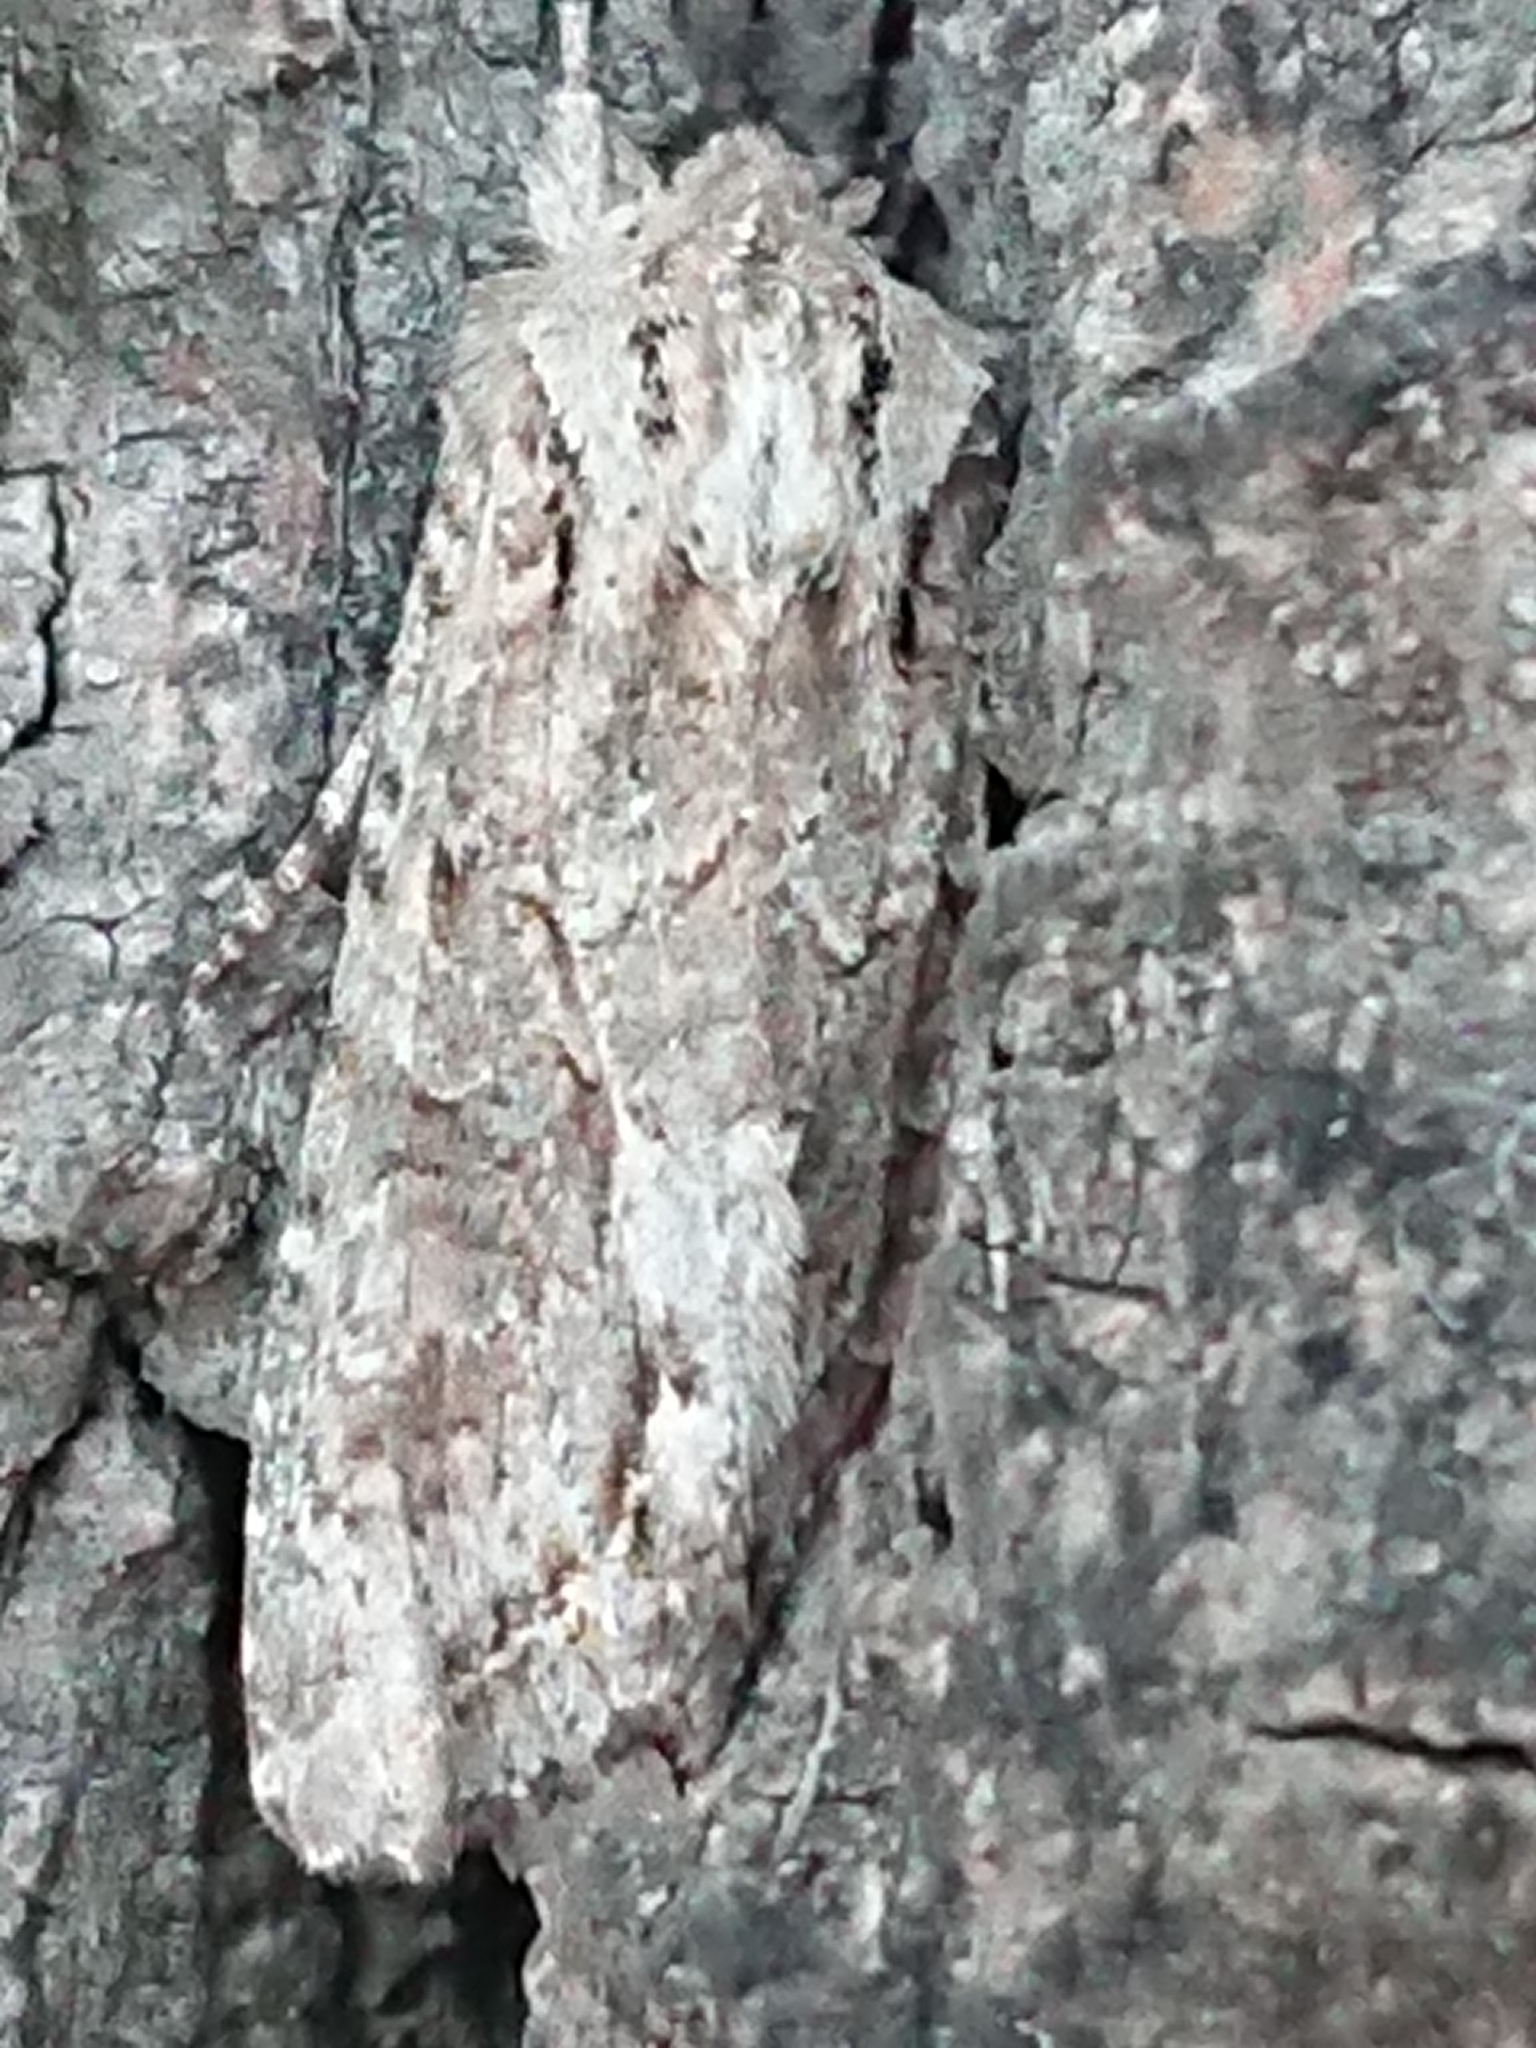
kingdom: Animalia
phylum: Arthropoda
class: Insecta
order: Lepidoptera
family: Noctuidae
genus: Ichneutica
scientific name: Ichneutica mutans
